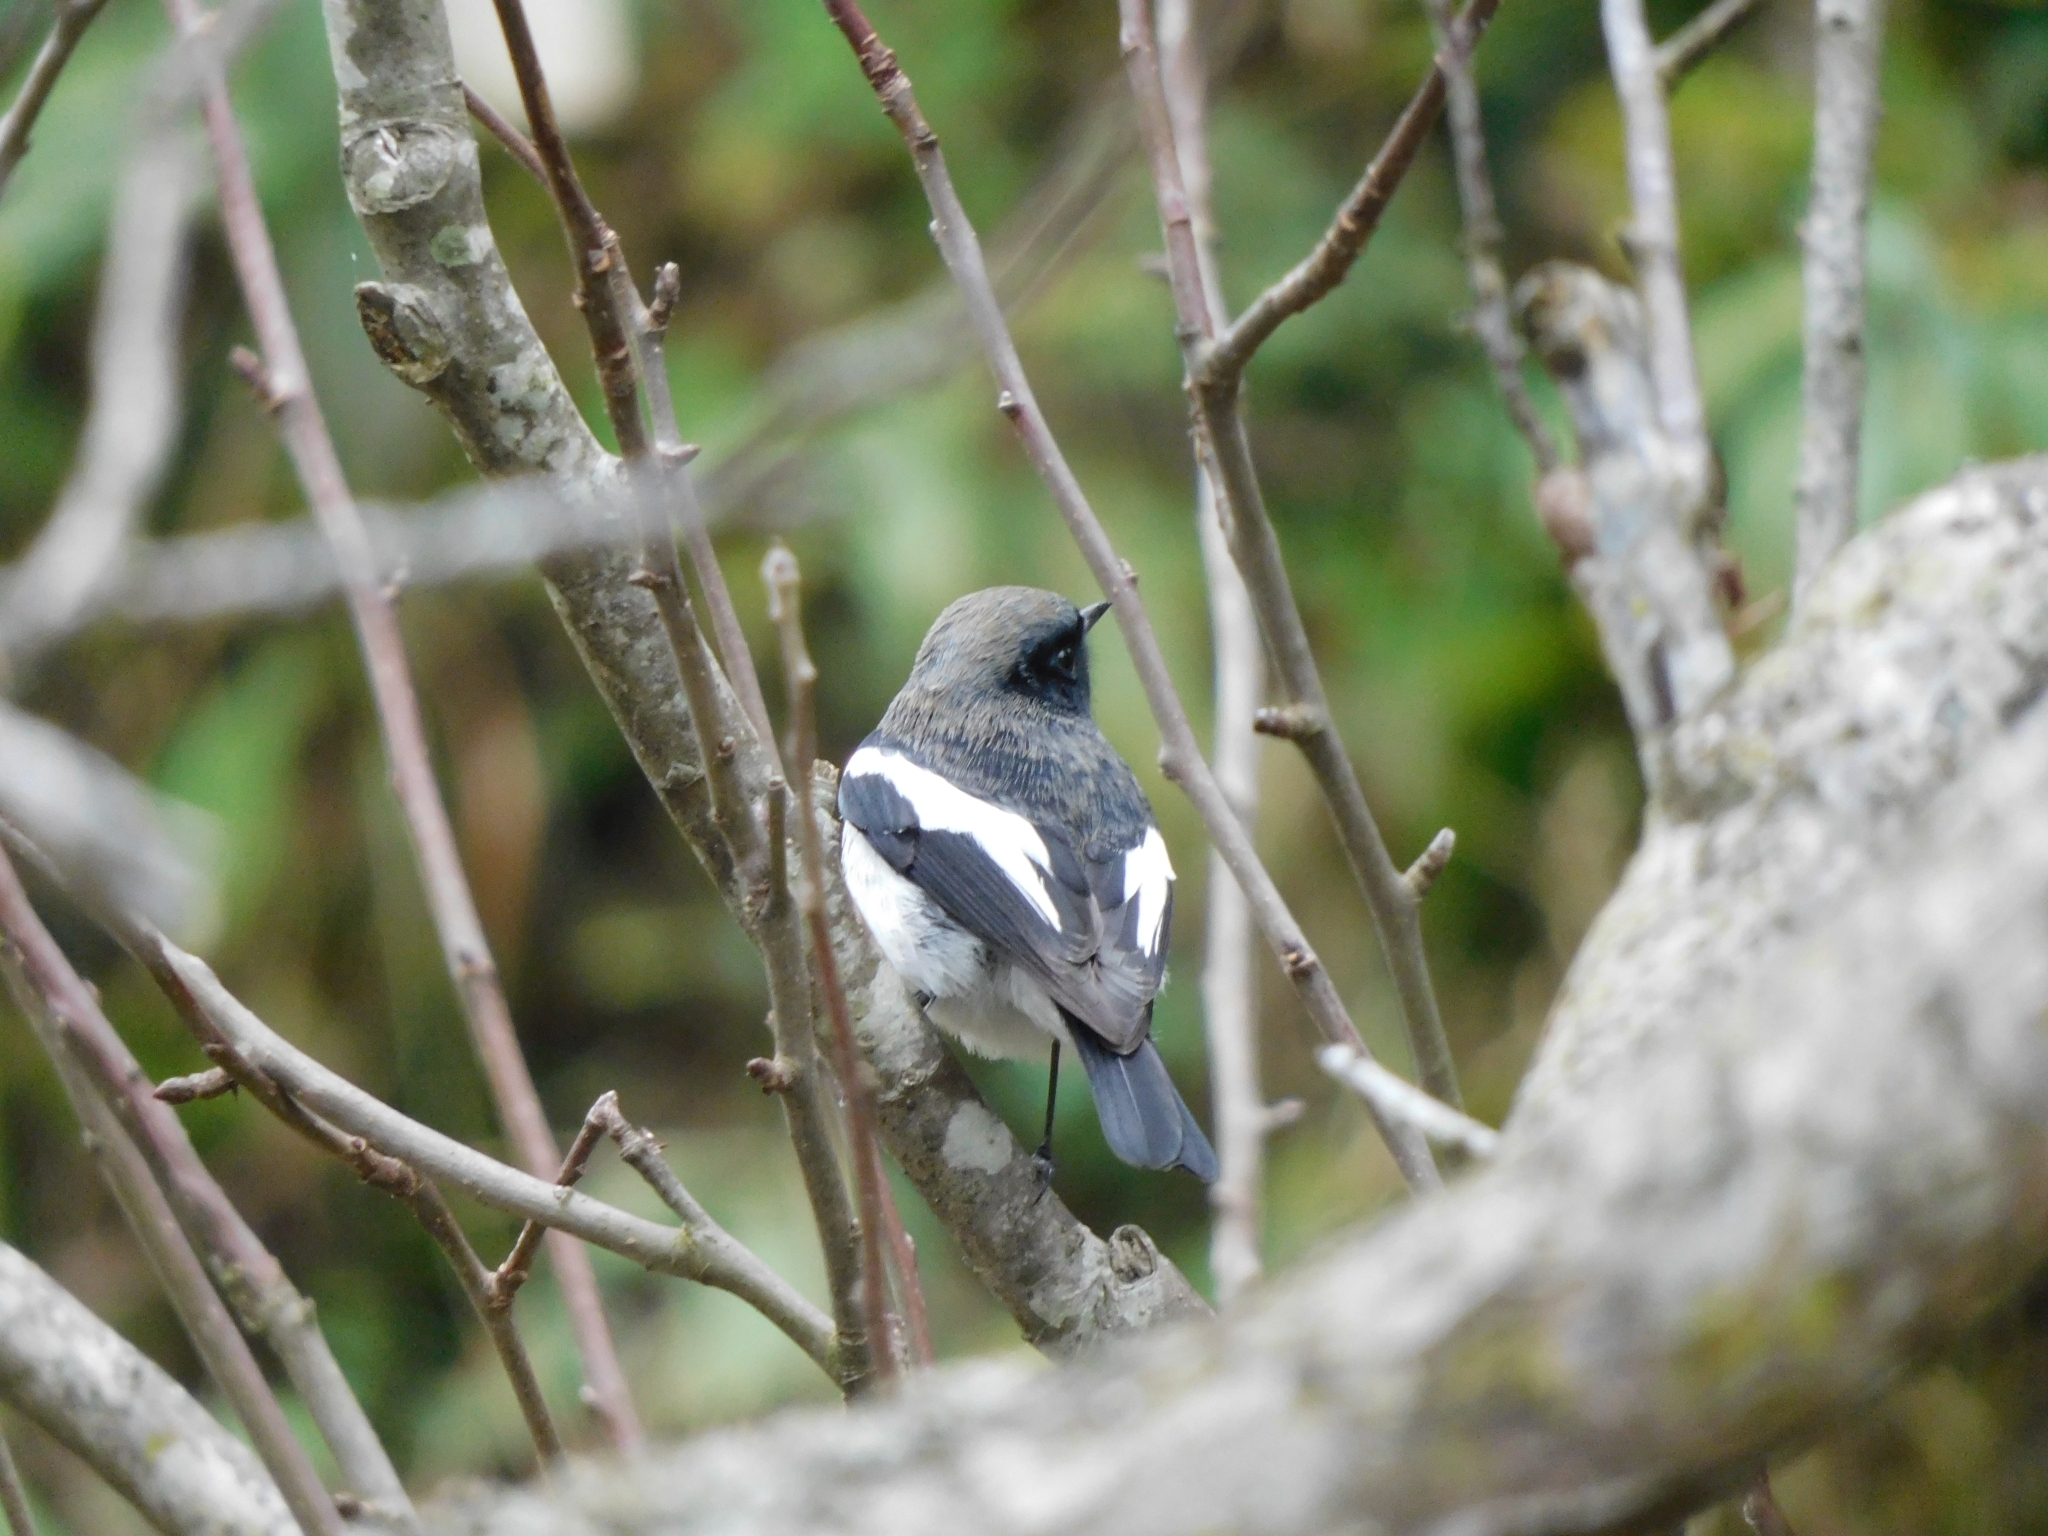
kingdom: Animalia
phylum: Chordata
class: Aves
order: Passeriformes
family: Muscicapidae
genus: Phoenicurus
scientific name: Phoenicurus coeruleocephala
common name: Blue-capped redstart
